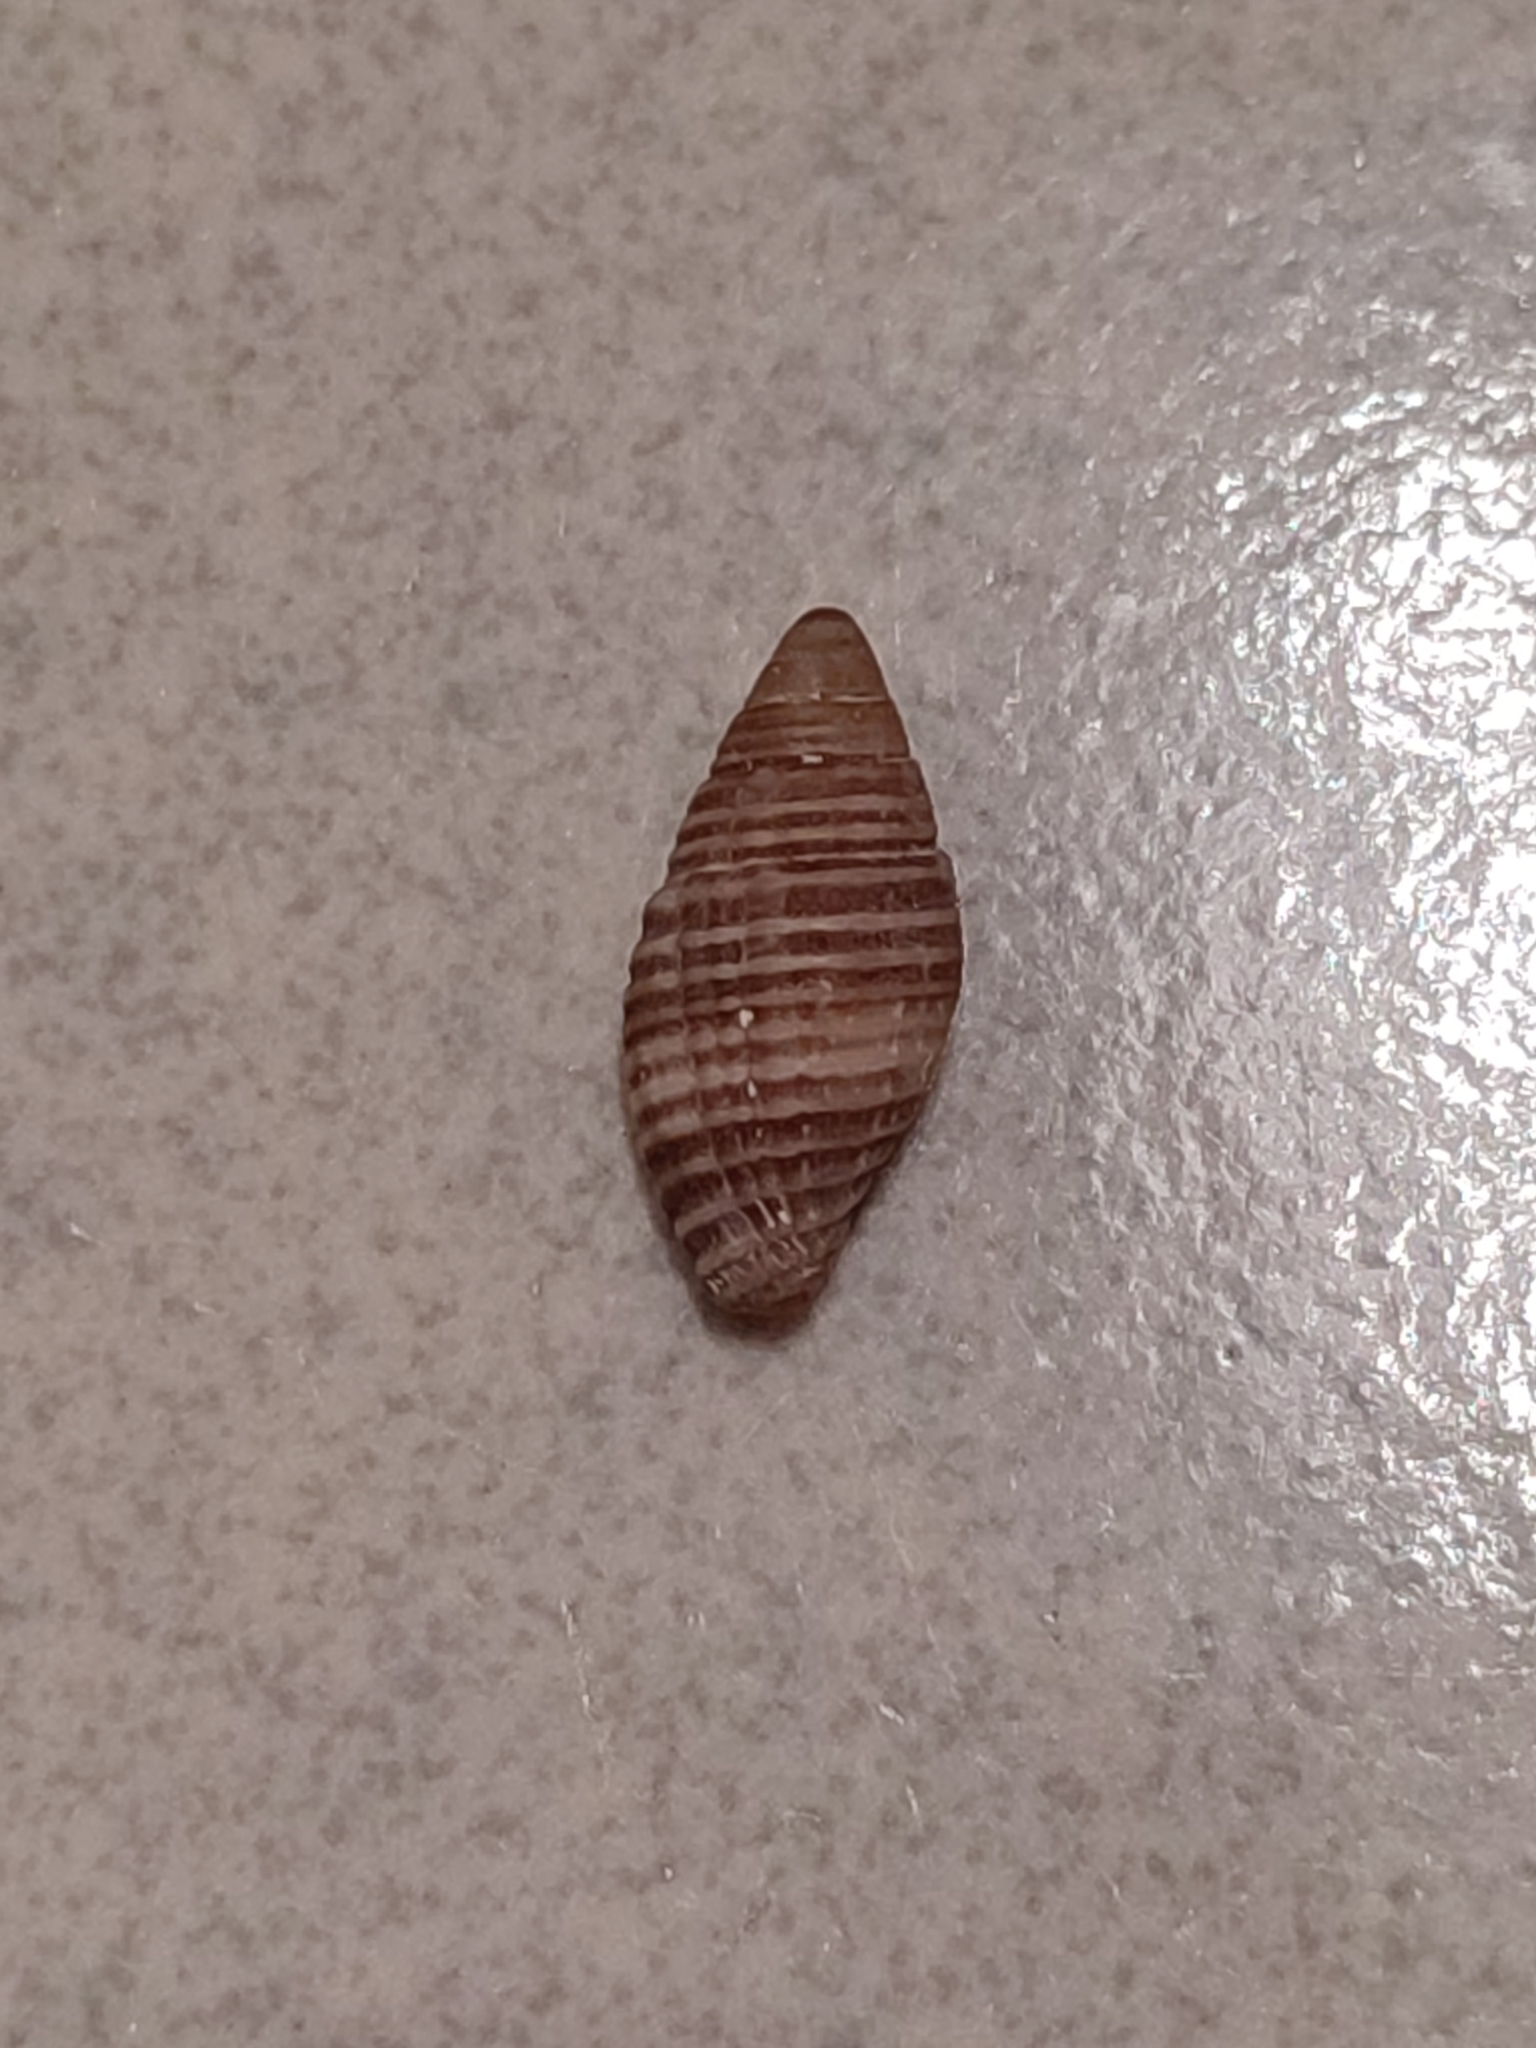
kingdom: Animalia
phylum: Mollusca
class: Gastropoda
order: Neogastropoda
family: Mitridae
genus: Pseudonebularia
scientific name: Pseudonebularia proscissa
